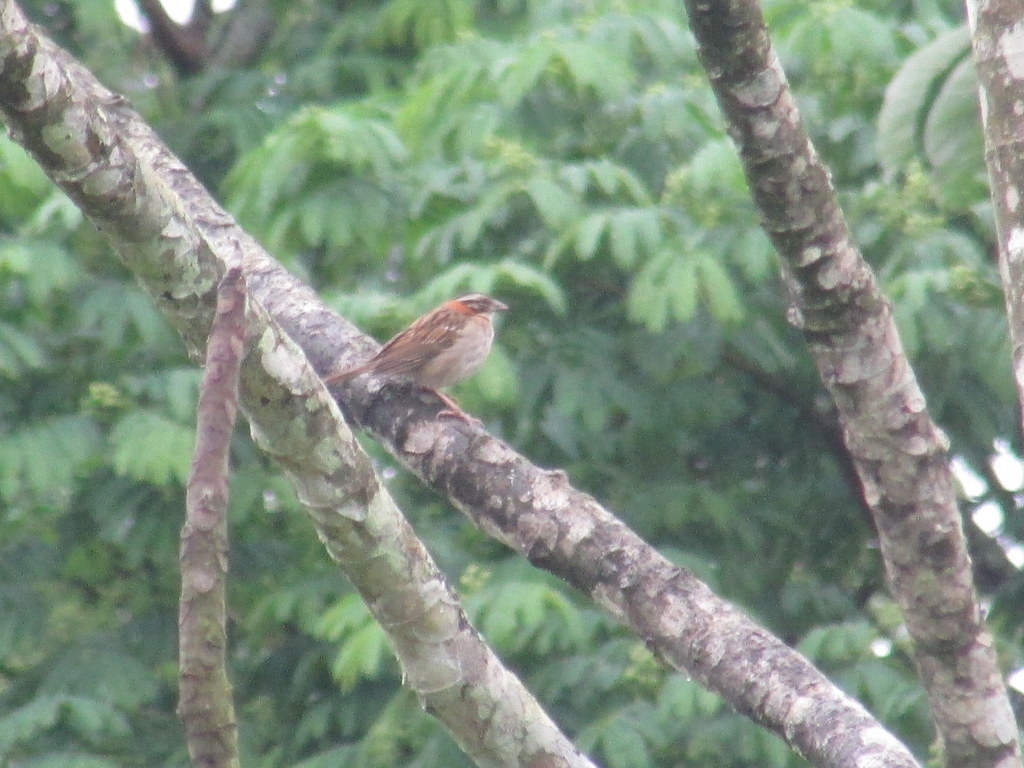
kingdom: Animalia
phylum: Chordata
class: Aves
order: Passeriformes
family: Passerellidae
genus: Zonotrichia
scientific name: Zonotrichia capensis
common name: Rufous-collared sparrow
